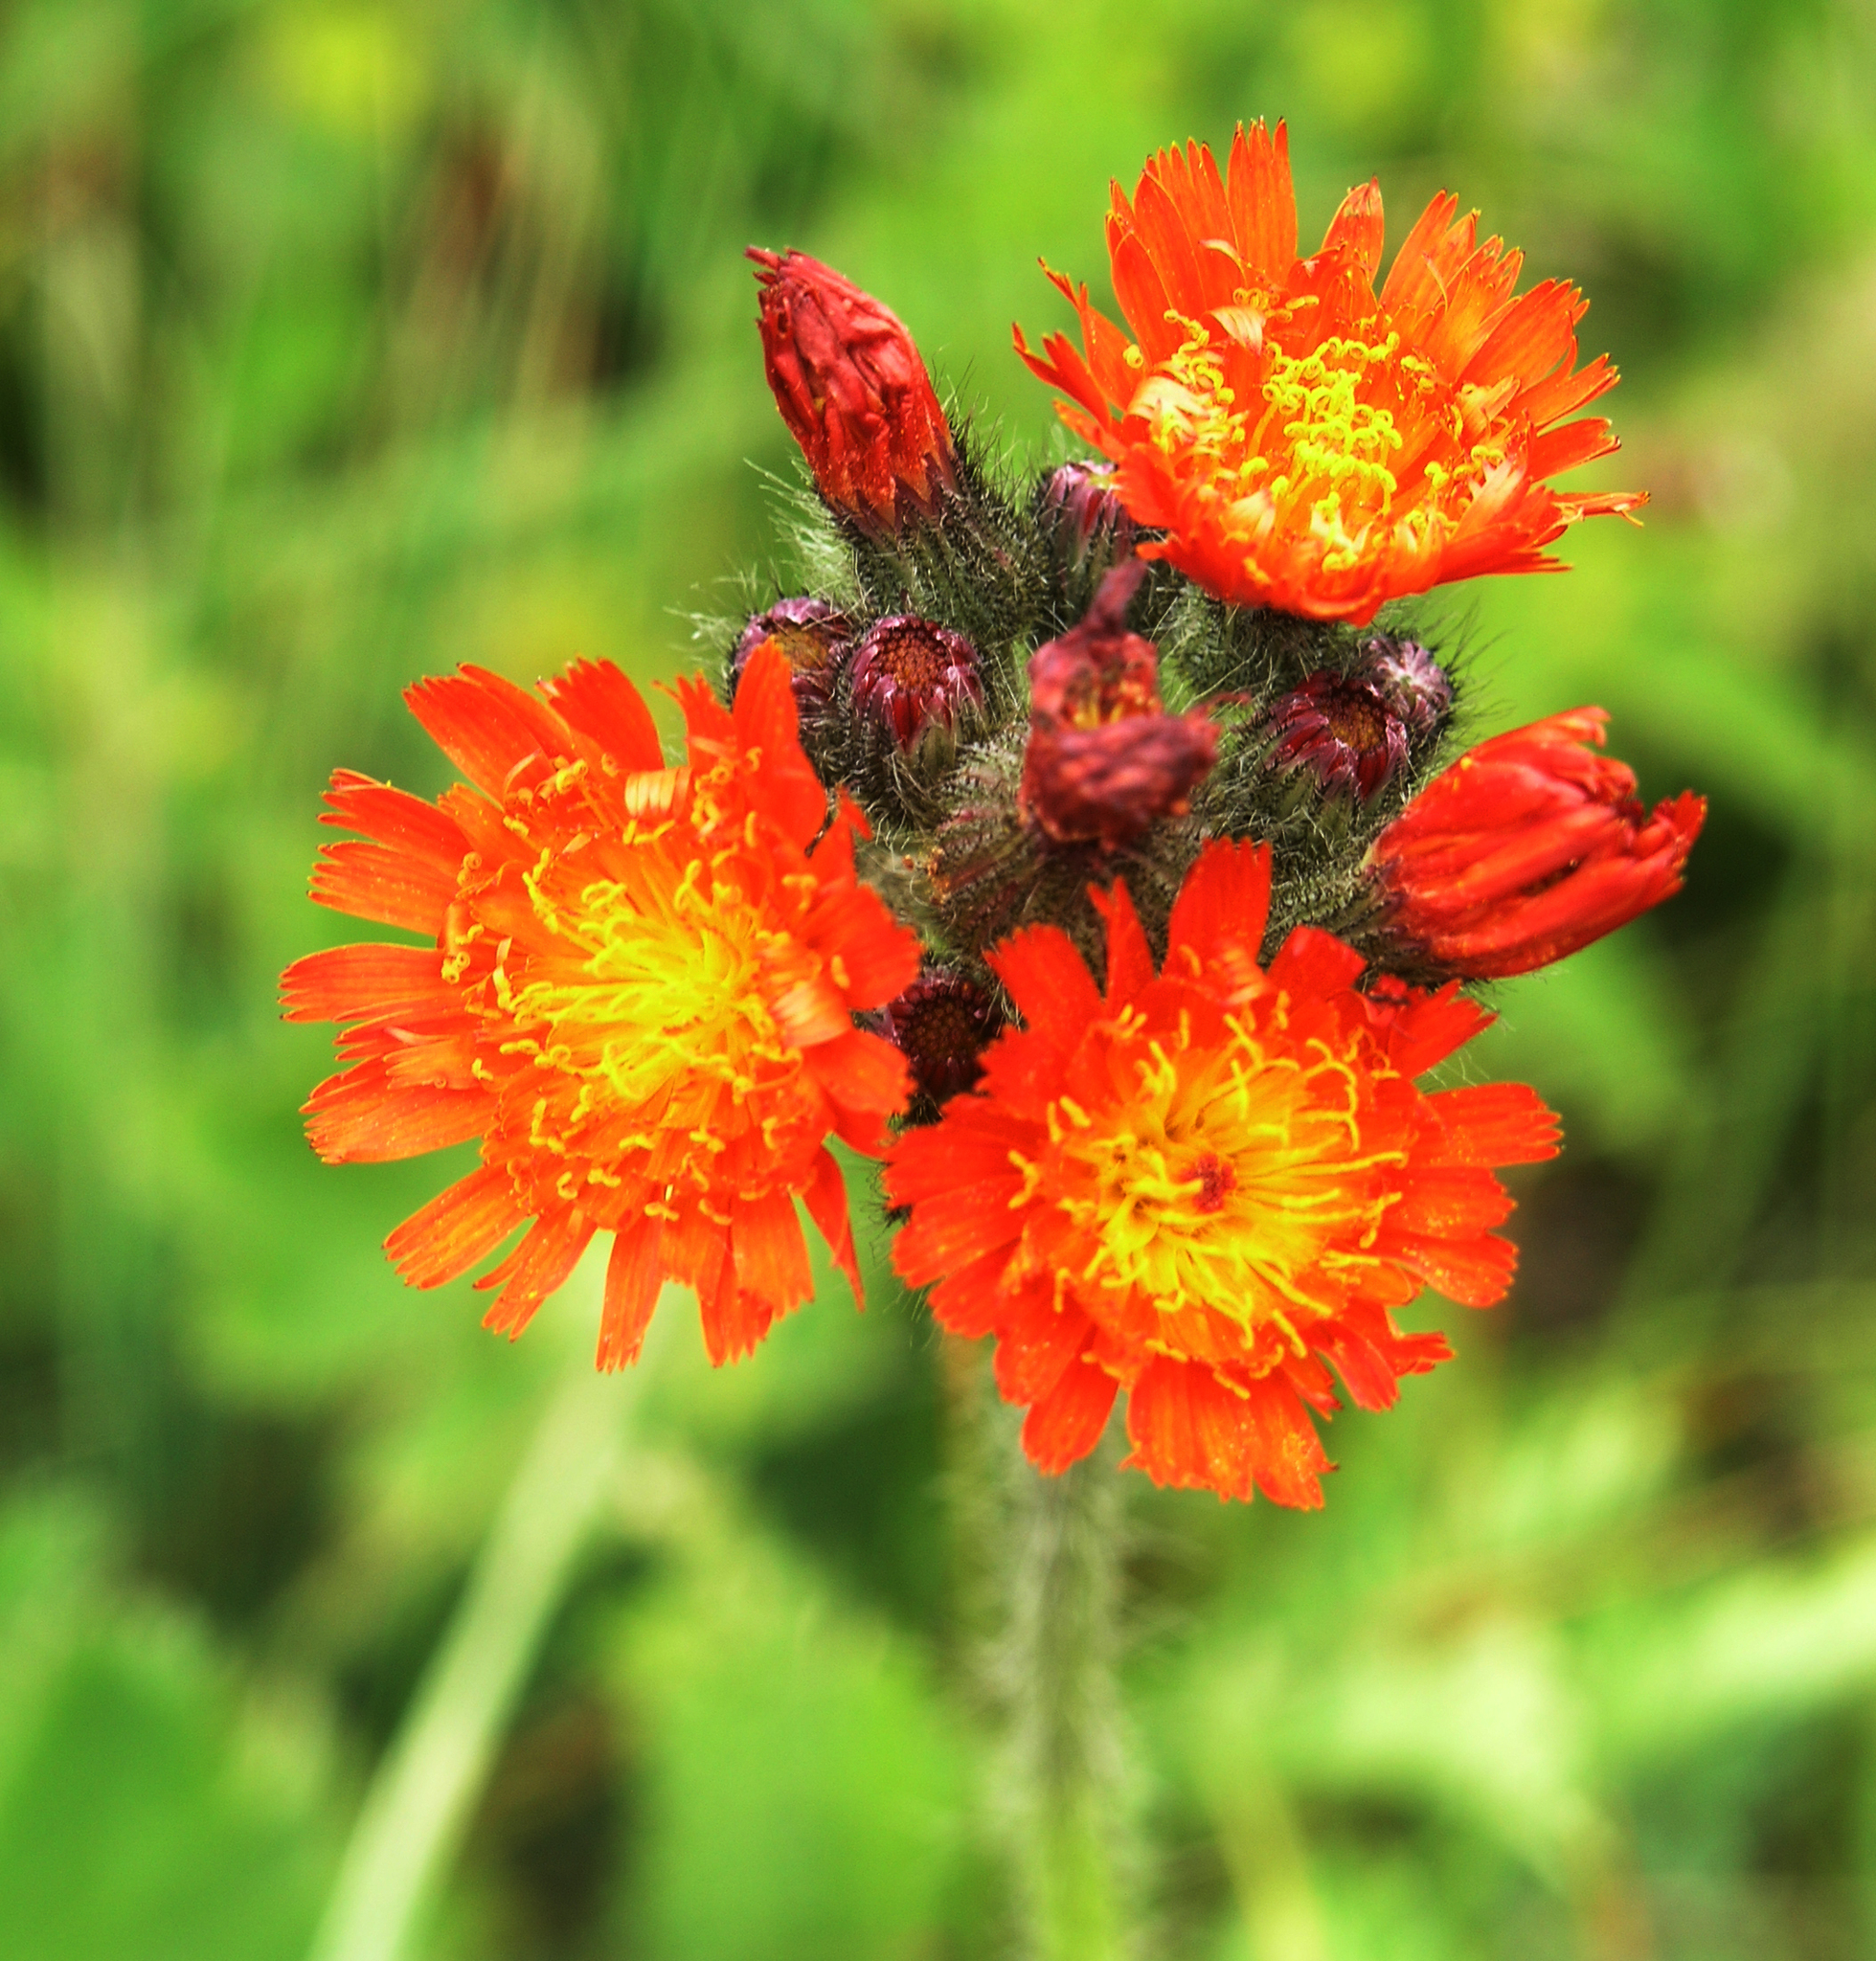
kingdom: Plantae
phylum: Tracheophyta
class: Magnoliopsida
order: Asterales
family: Asteraceae
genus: Pilosella
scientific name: Pilosella aurantiaca
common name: Fox-and-cubs
